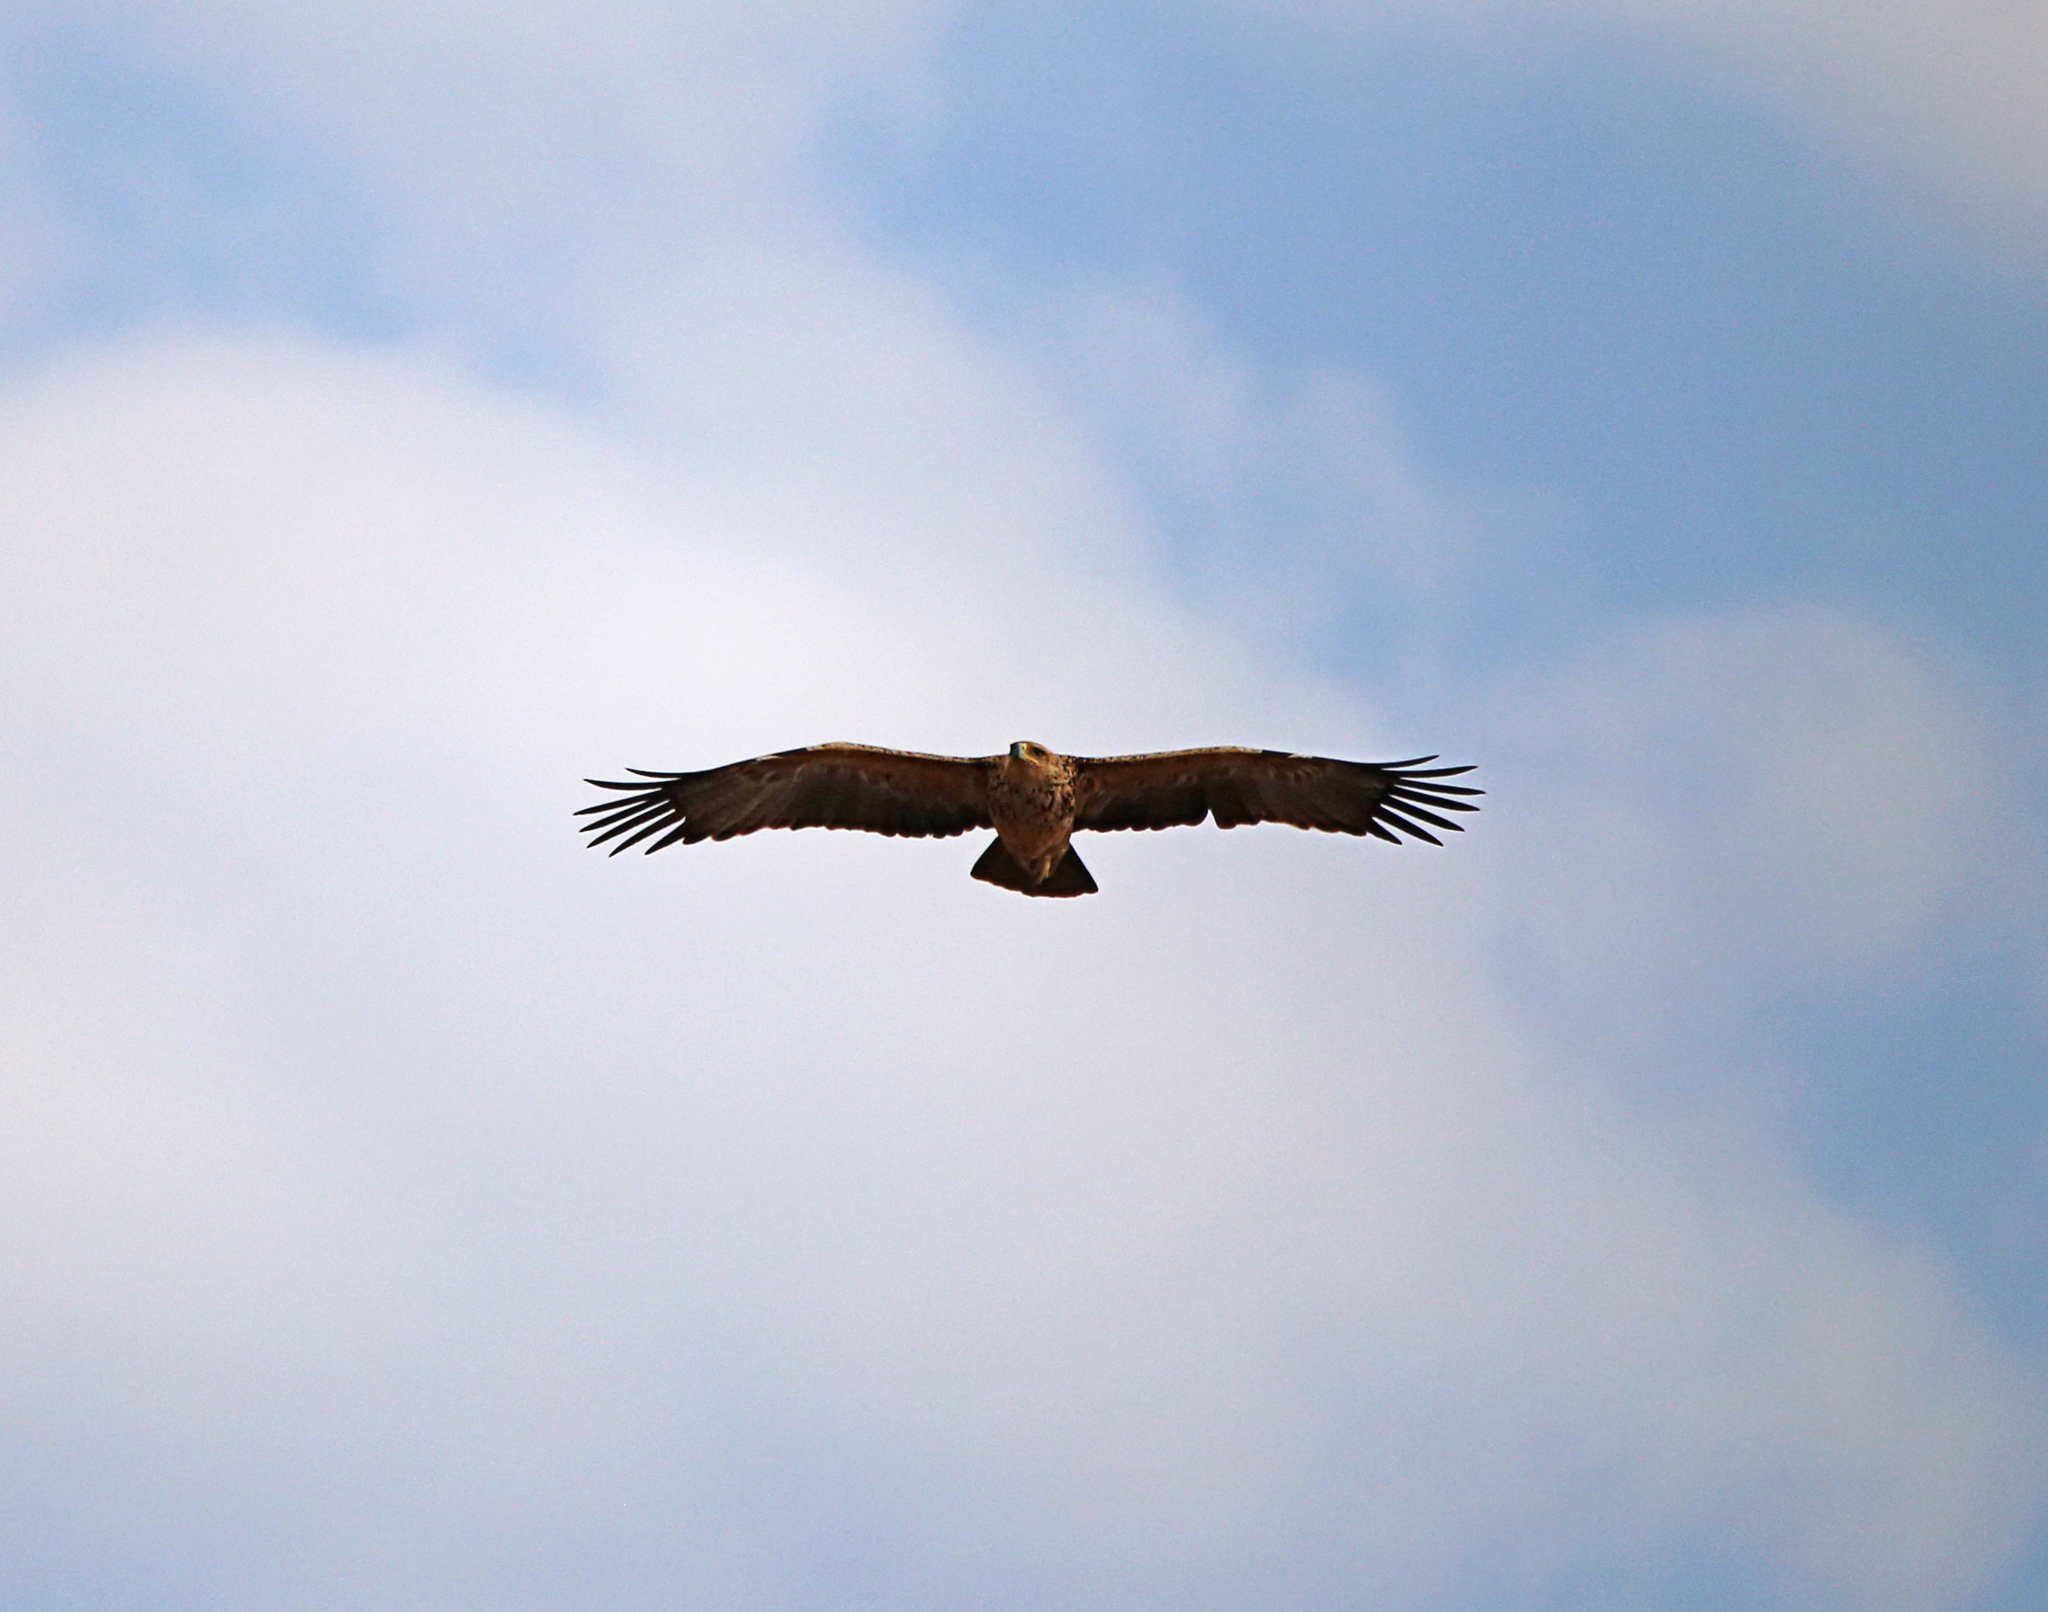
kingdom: Animalia
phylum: Chordata
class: Aves
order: Accipitriformes
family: Accipitridae
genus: Aquila
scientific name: Aquila rapax
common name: Tawny eagle
